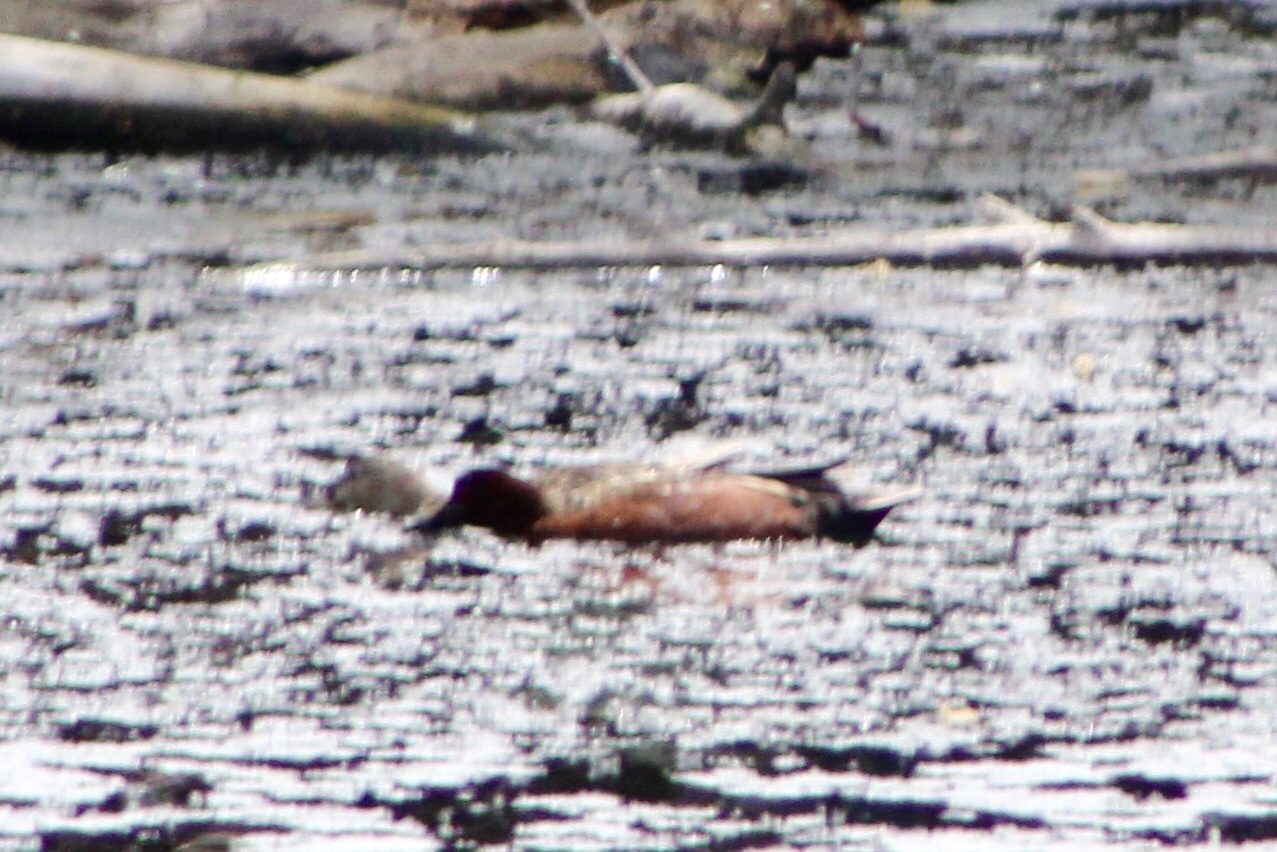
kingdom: Animalia
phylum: Chordata
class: Aves
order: Anseriformes
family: Anatidae
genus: Spatula
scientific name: Spatula cyanoptera
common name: Cinnamon teal
